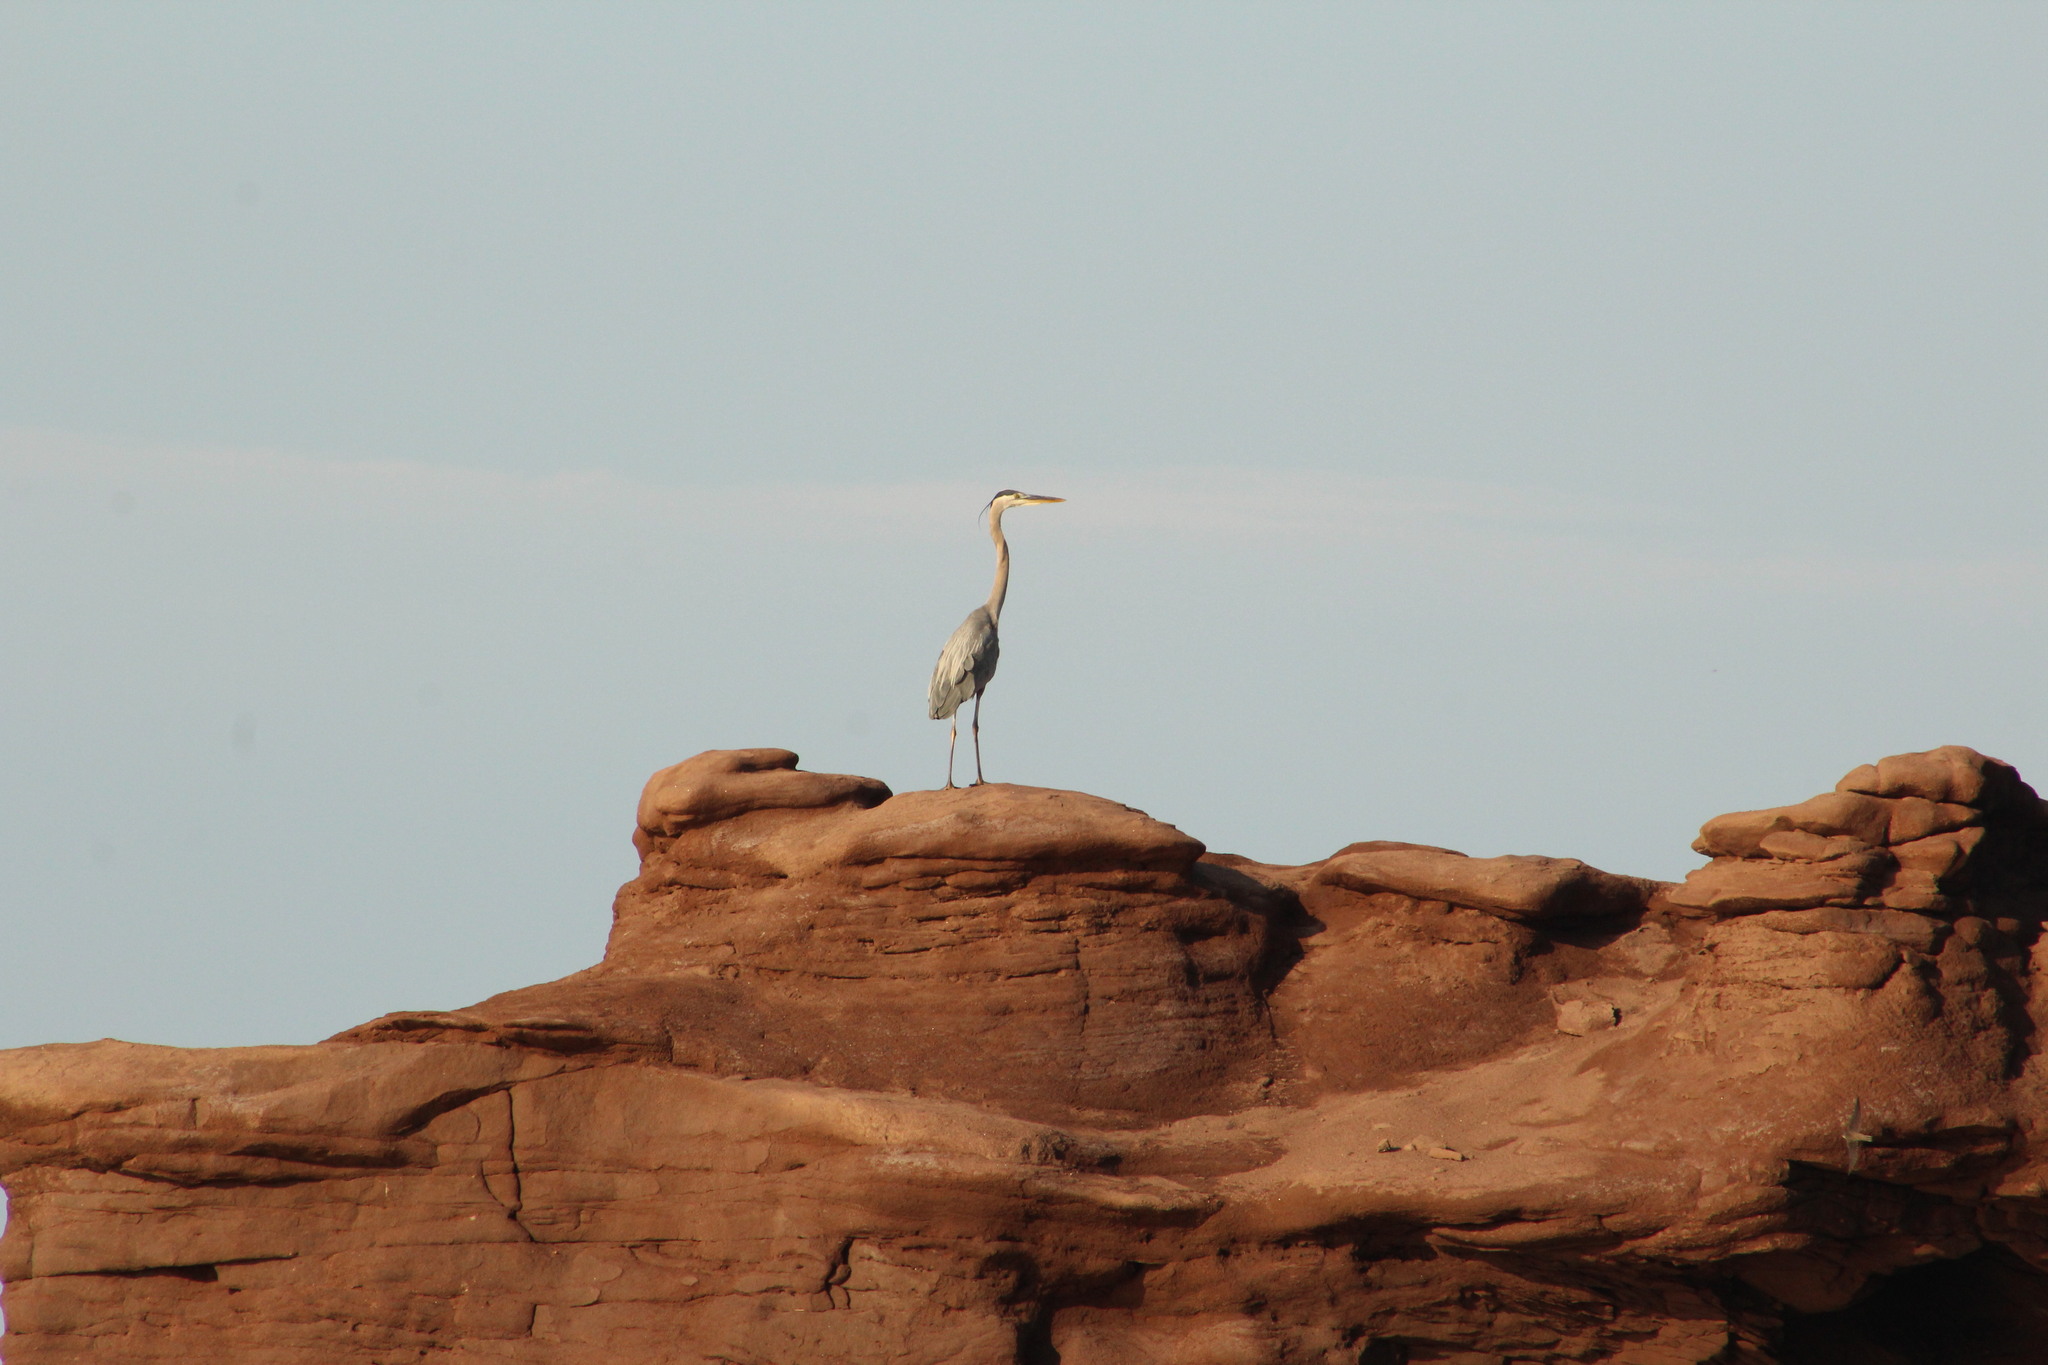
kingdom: Animalia
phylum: Chordata
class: Aves
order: Pelecaniformes
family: Ardeidae
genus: Ardea
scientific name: Ardea herodias
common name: Great blue heron
